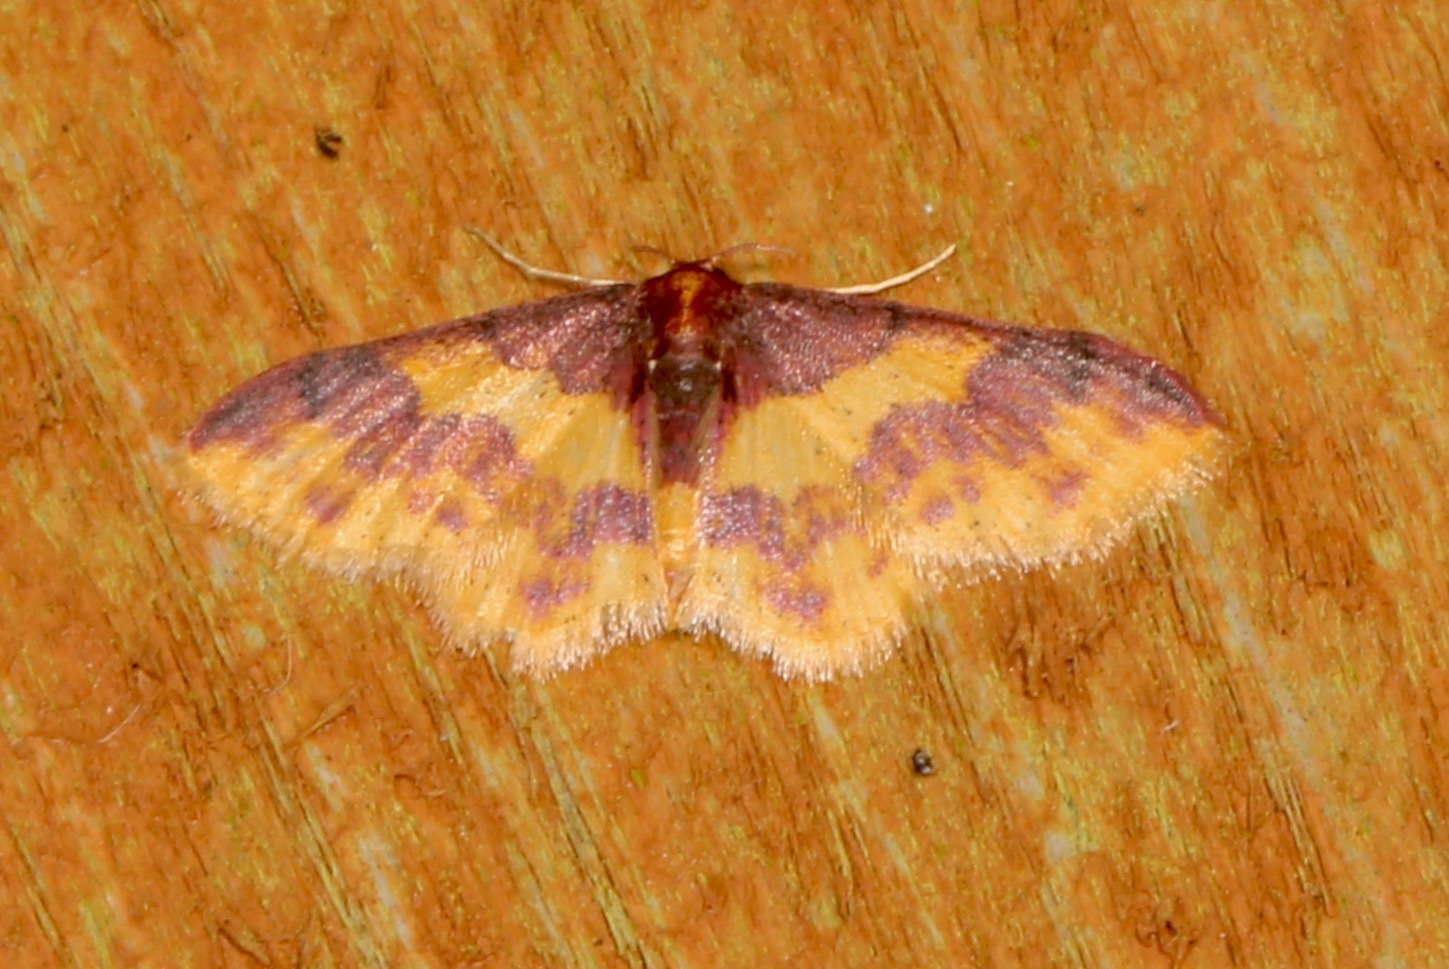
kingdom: Animalia
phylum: Arthropoda
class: Insecta
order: Lepidoptera
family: Geometridae
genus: Lophosis
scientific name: Lophosis labeculata
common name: Stained lophosis moth
